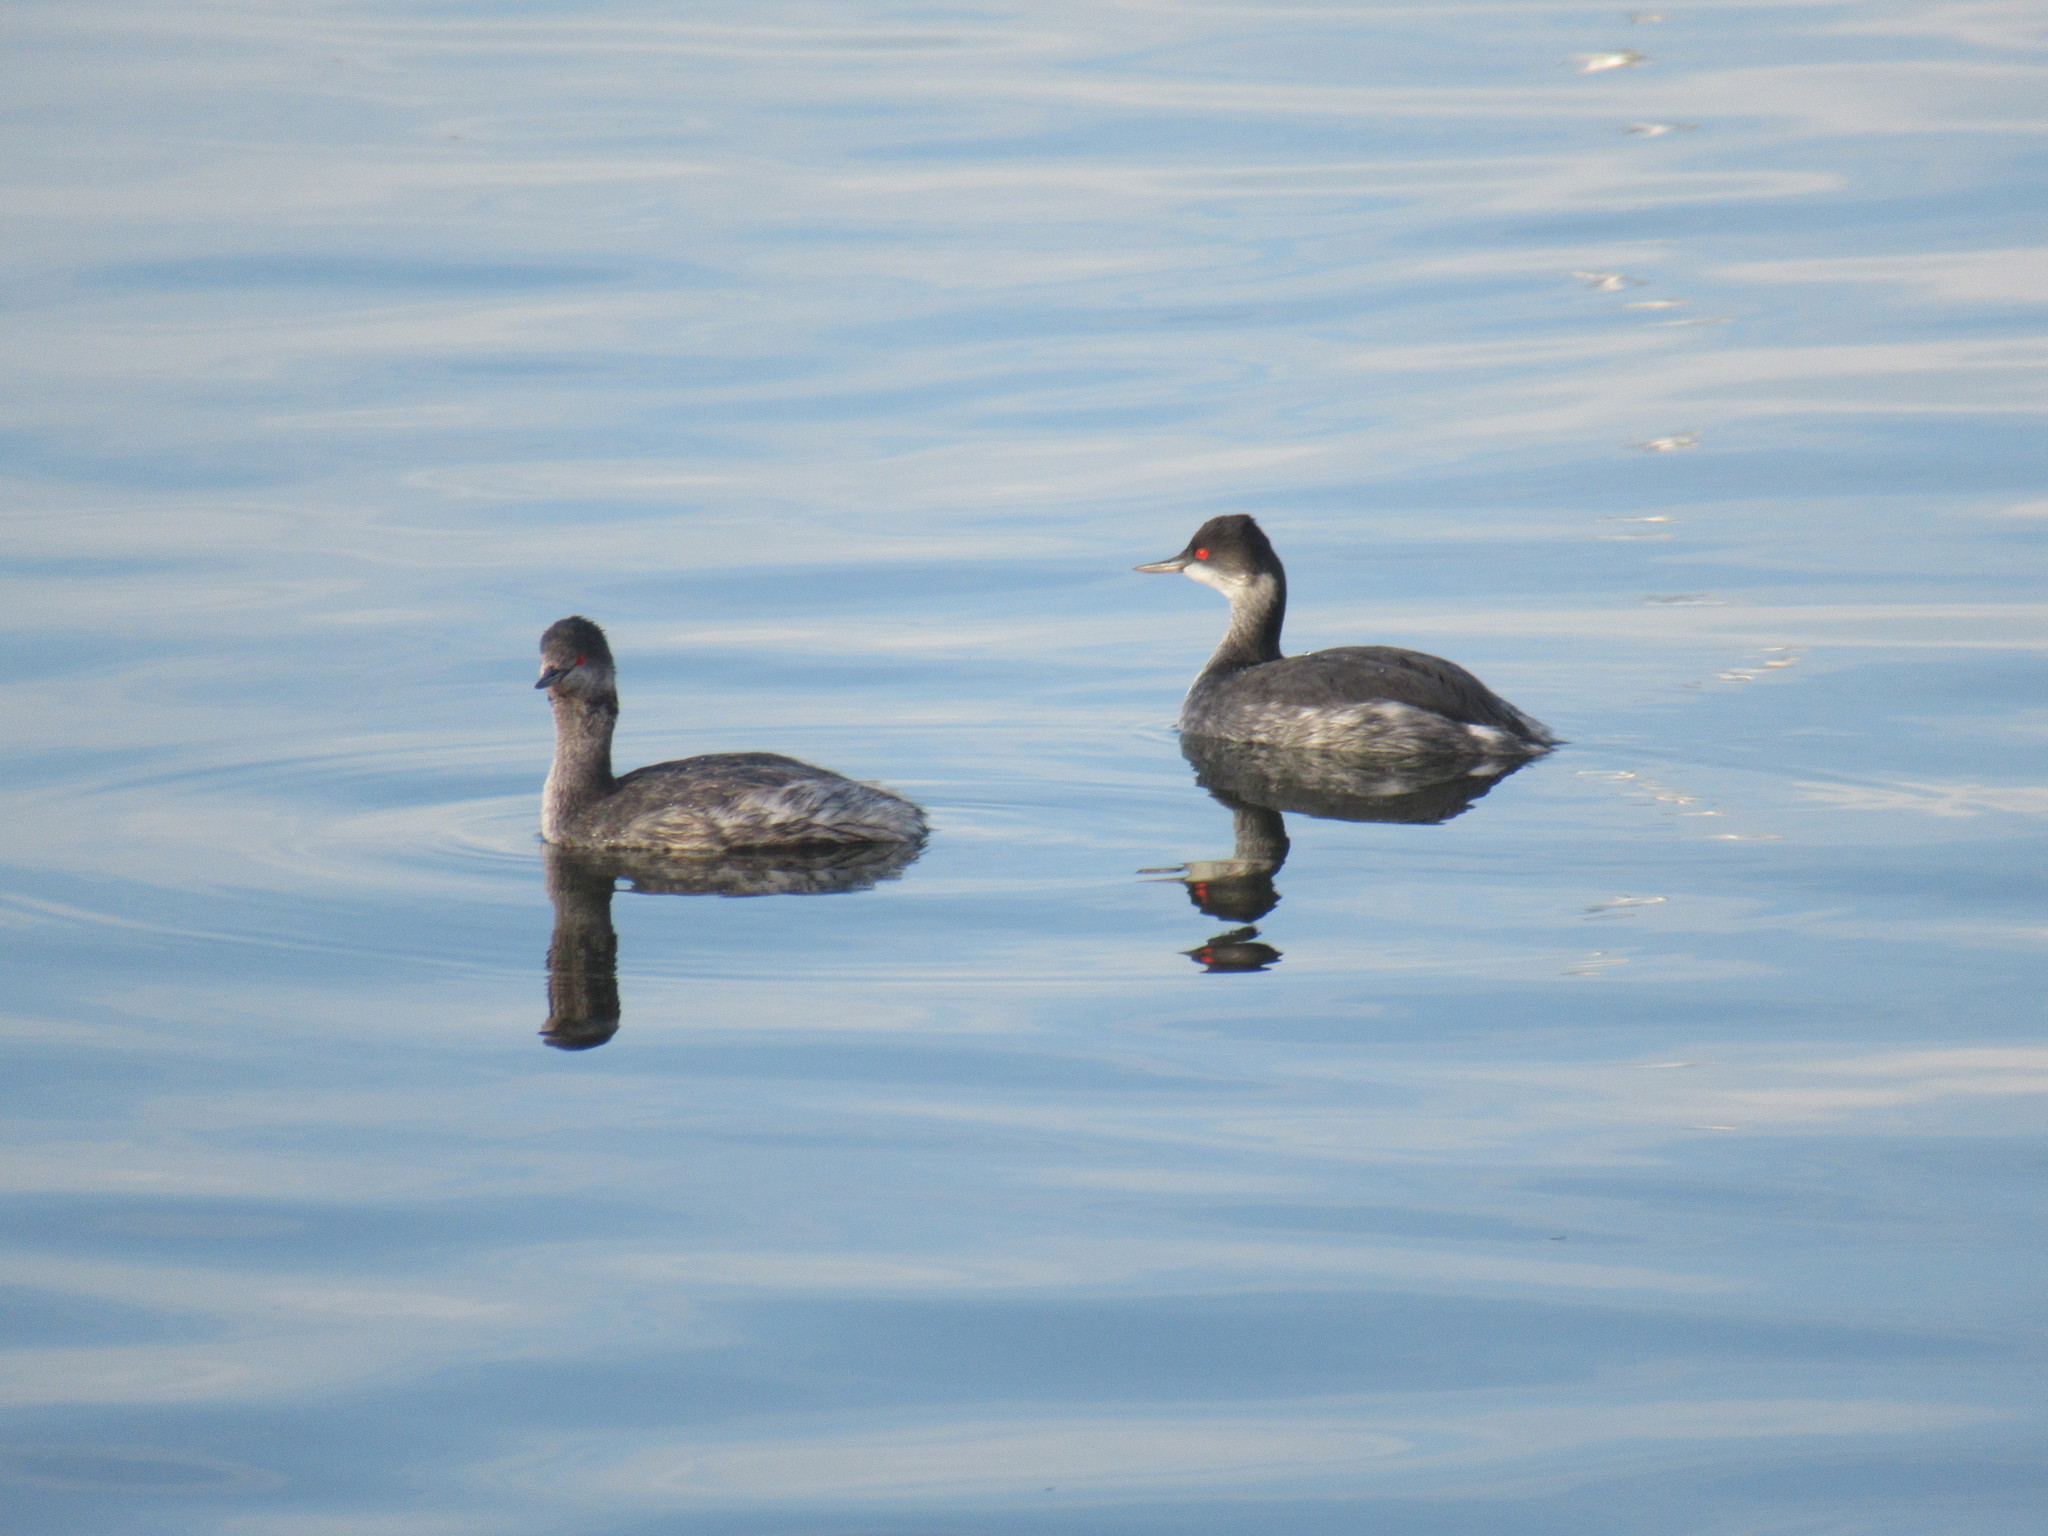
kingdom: Animalia
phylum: Chordata
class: Aves
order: Podicipediformes
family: Podicipedidae
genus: Podiceps
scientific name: Podiceps nigricollis
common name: Black-necked grebe
